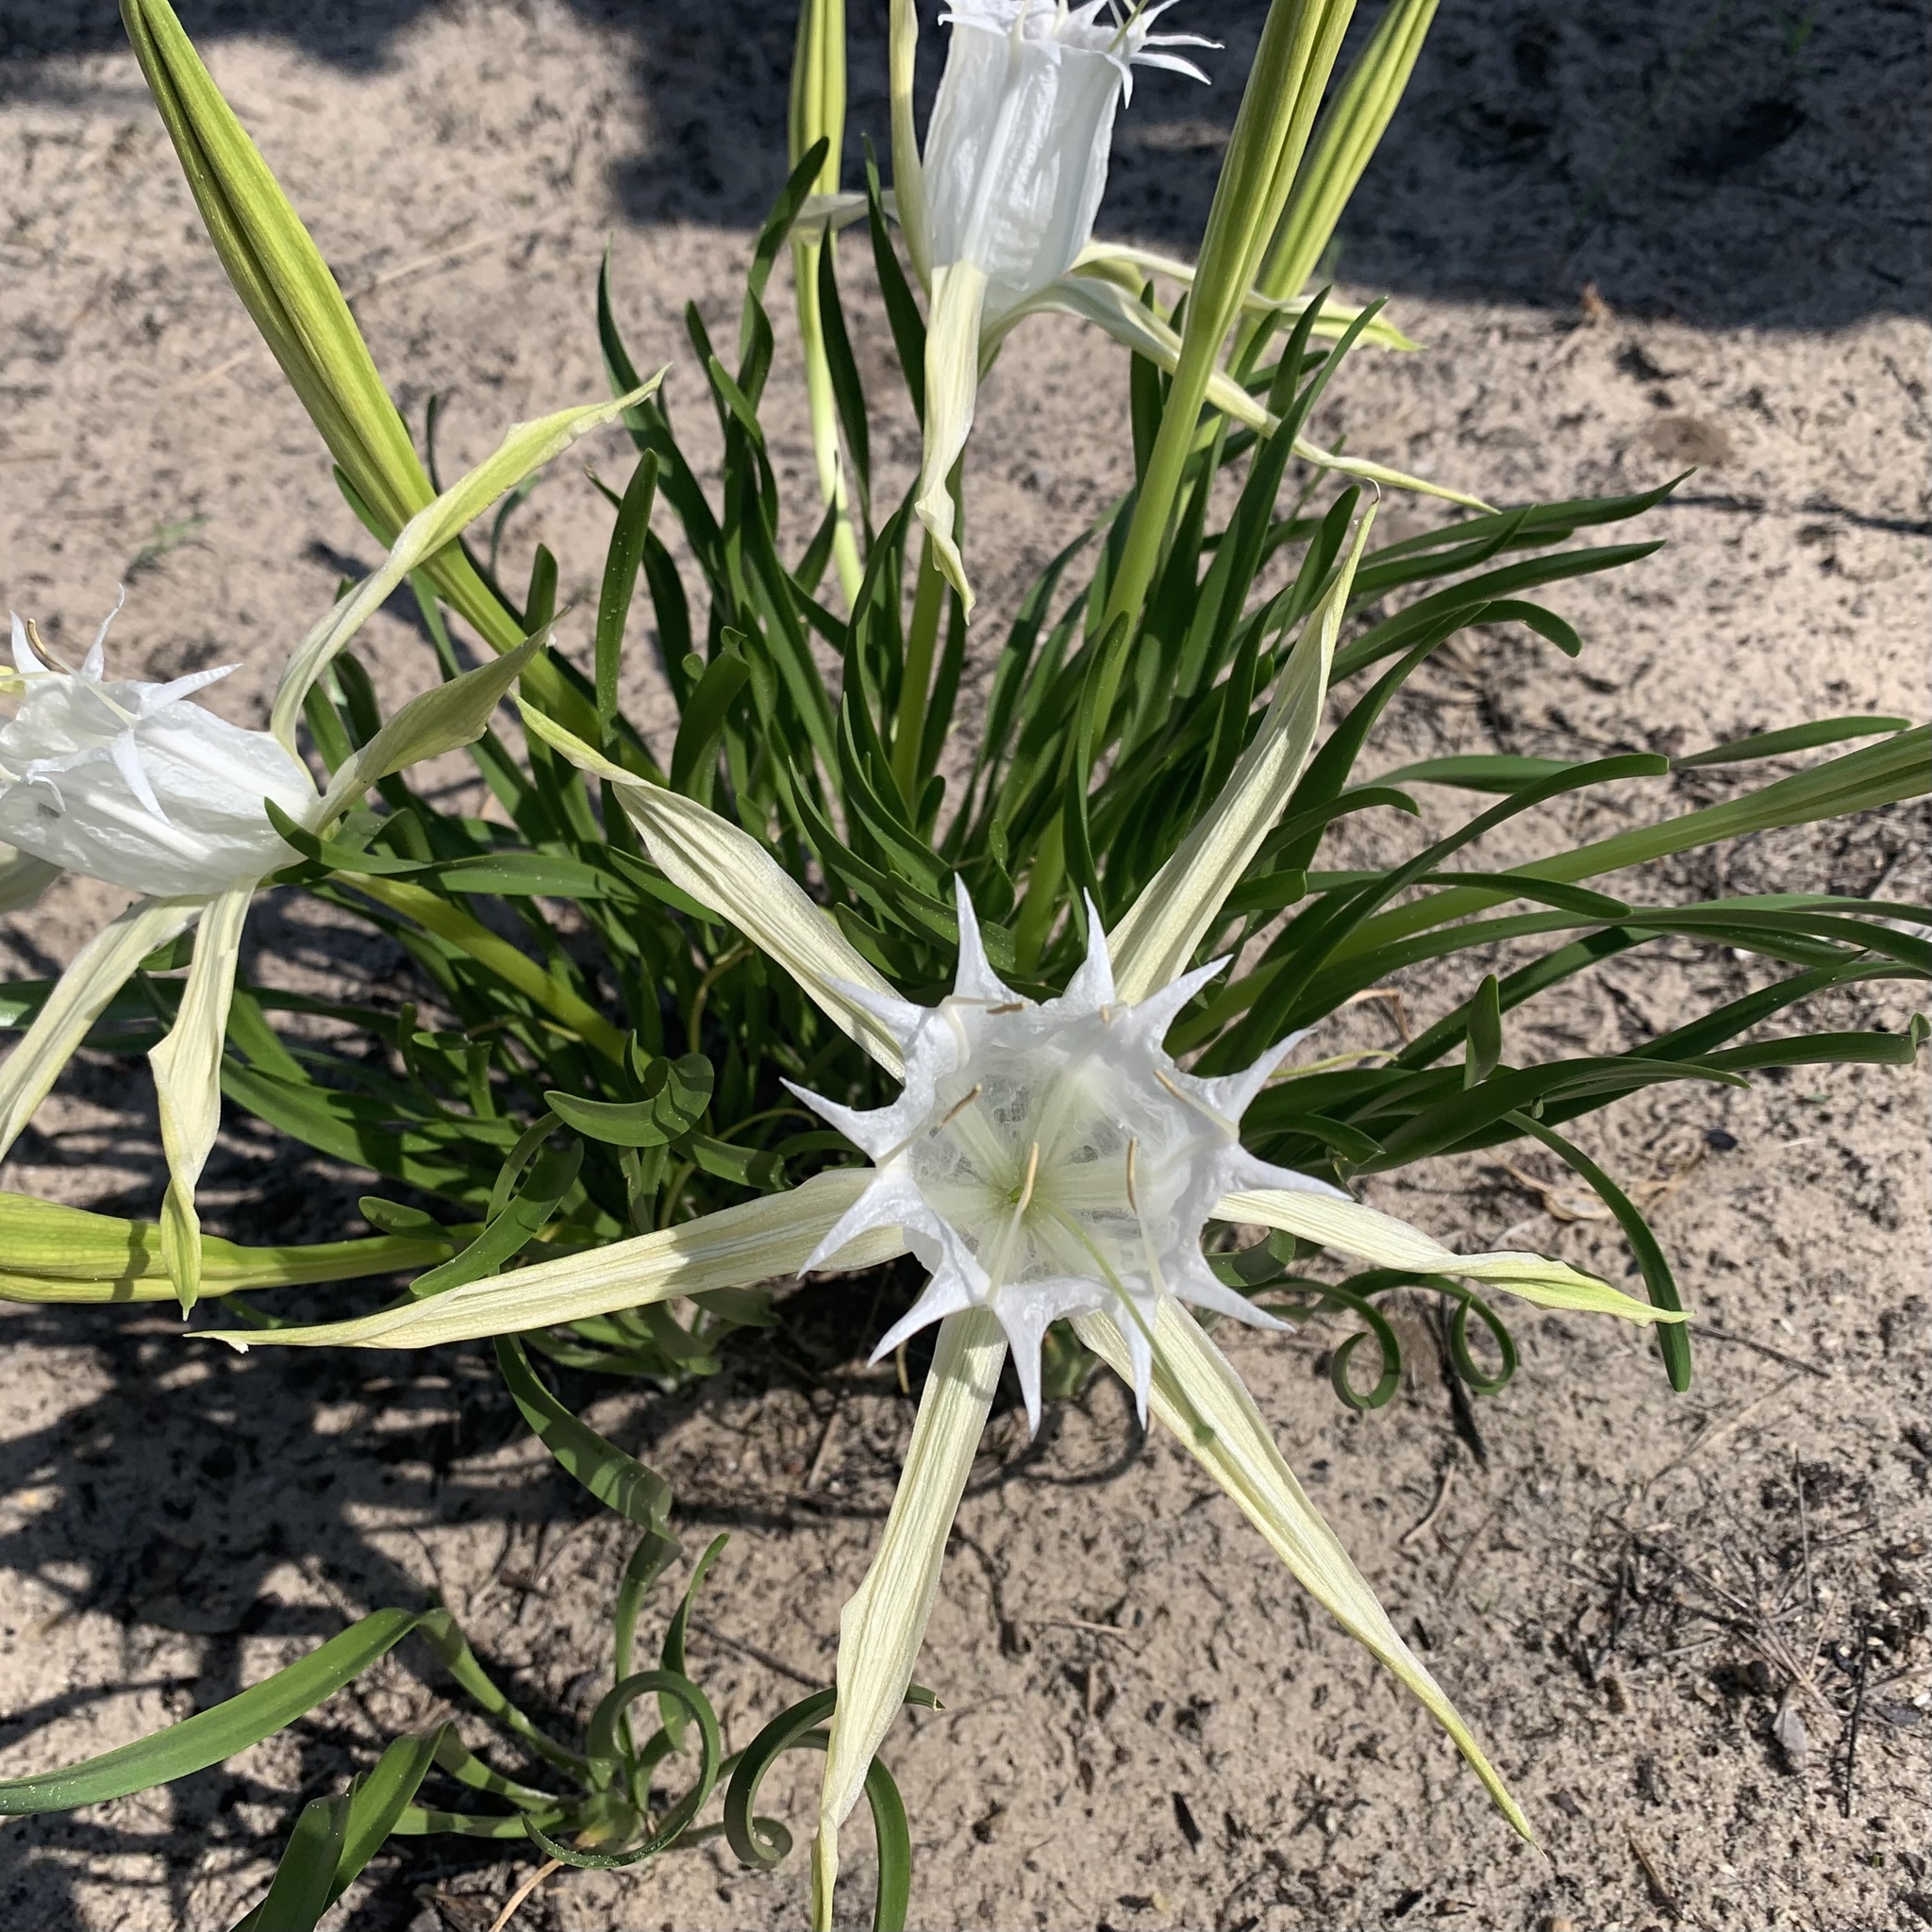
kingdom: Plantae
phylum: Tracheophyta
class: Liliopsida
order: Asparagales
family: Amaryllidaceae
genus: Pancratium
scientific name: Pancratium tenuifolium
